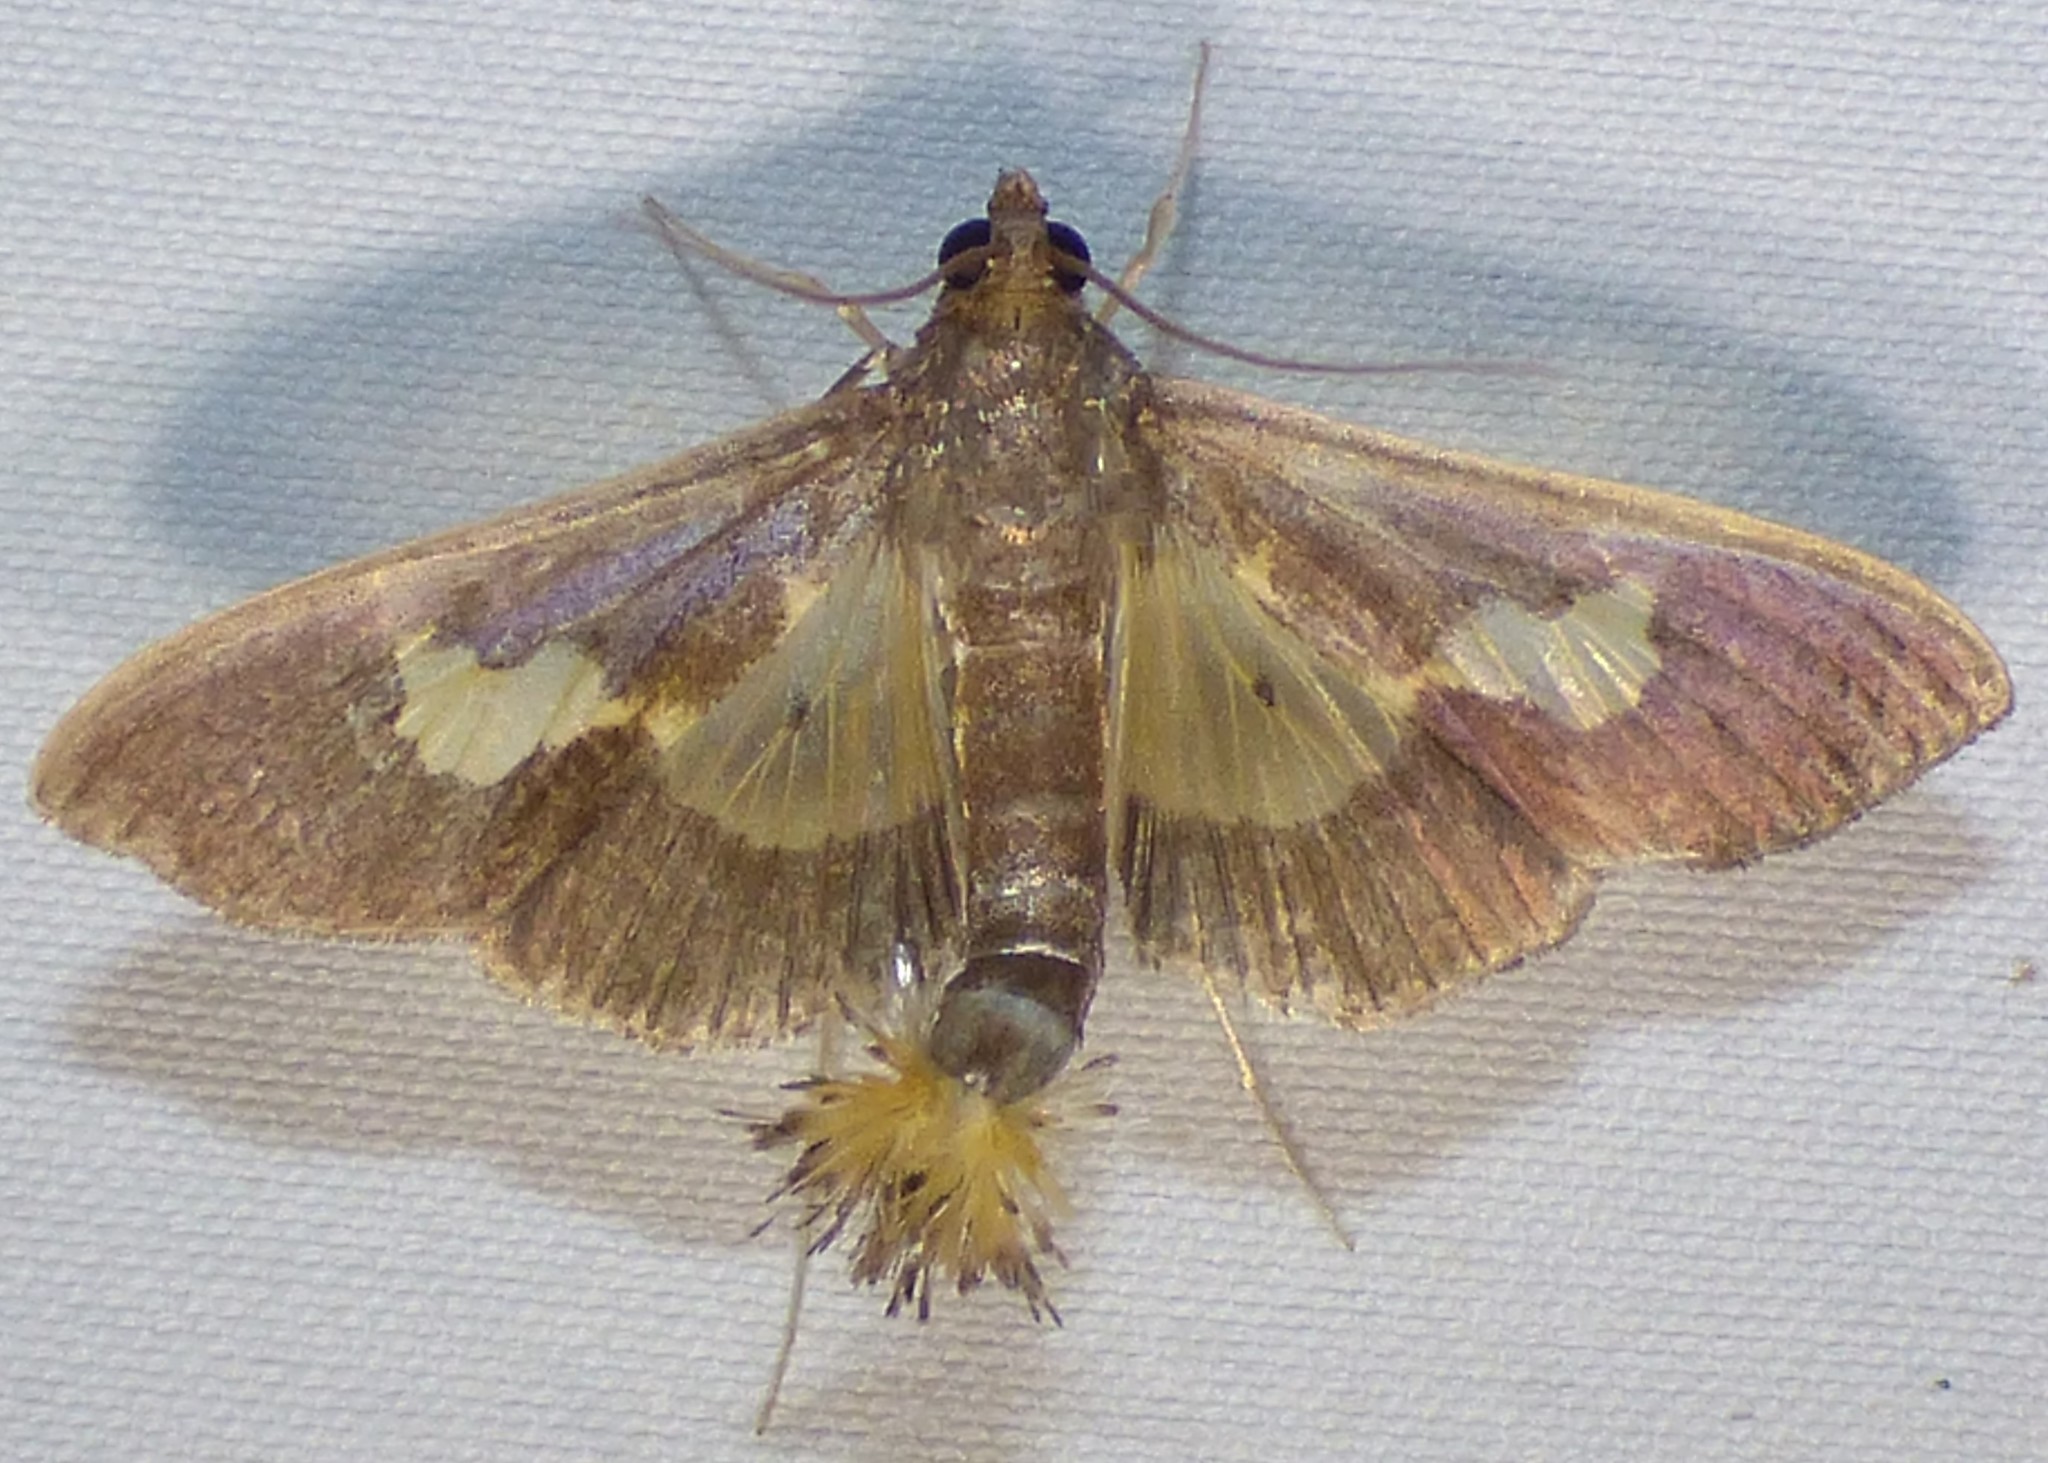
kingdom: Animalia
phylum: Arthropoda
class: Insecta
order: Lepidoptera
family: Crambidae
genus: Cryptographis
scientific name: Cryptographis nitidalis
